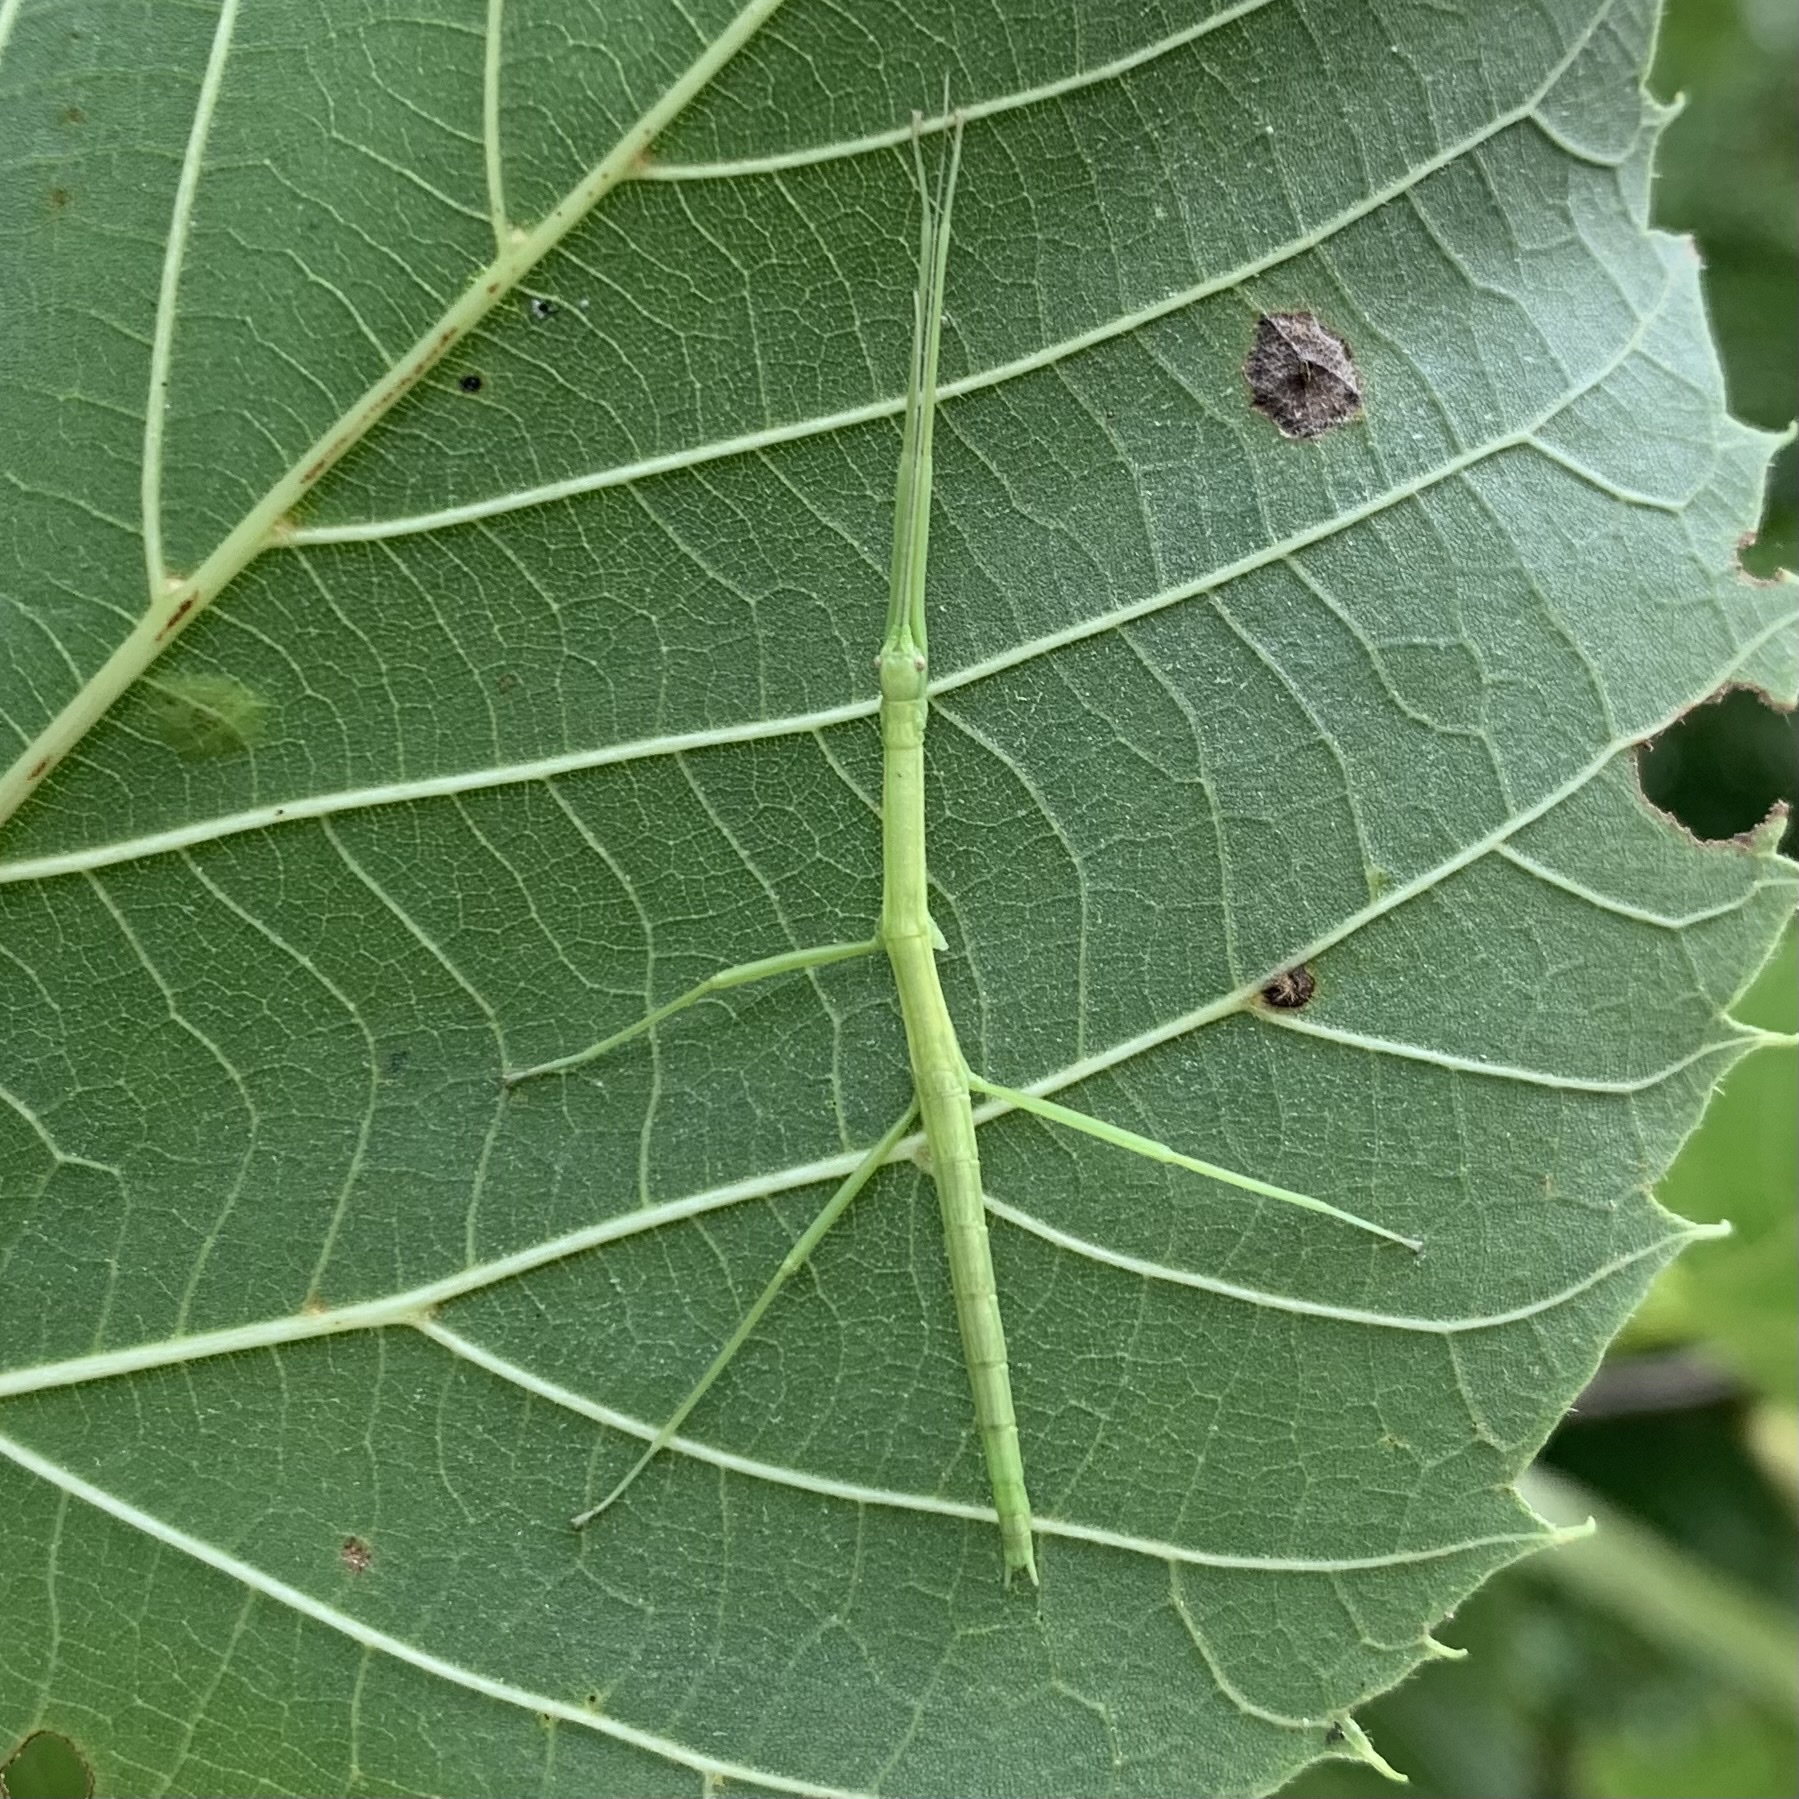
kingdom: Animalia
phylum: Arthropoda
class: Insecta
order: Phasmida
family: Diapheromeridae
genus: Diapheromera
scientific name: Diapheromera femorata
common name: Common american walkingstick
